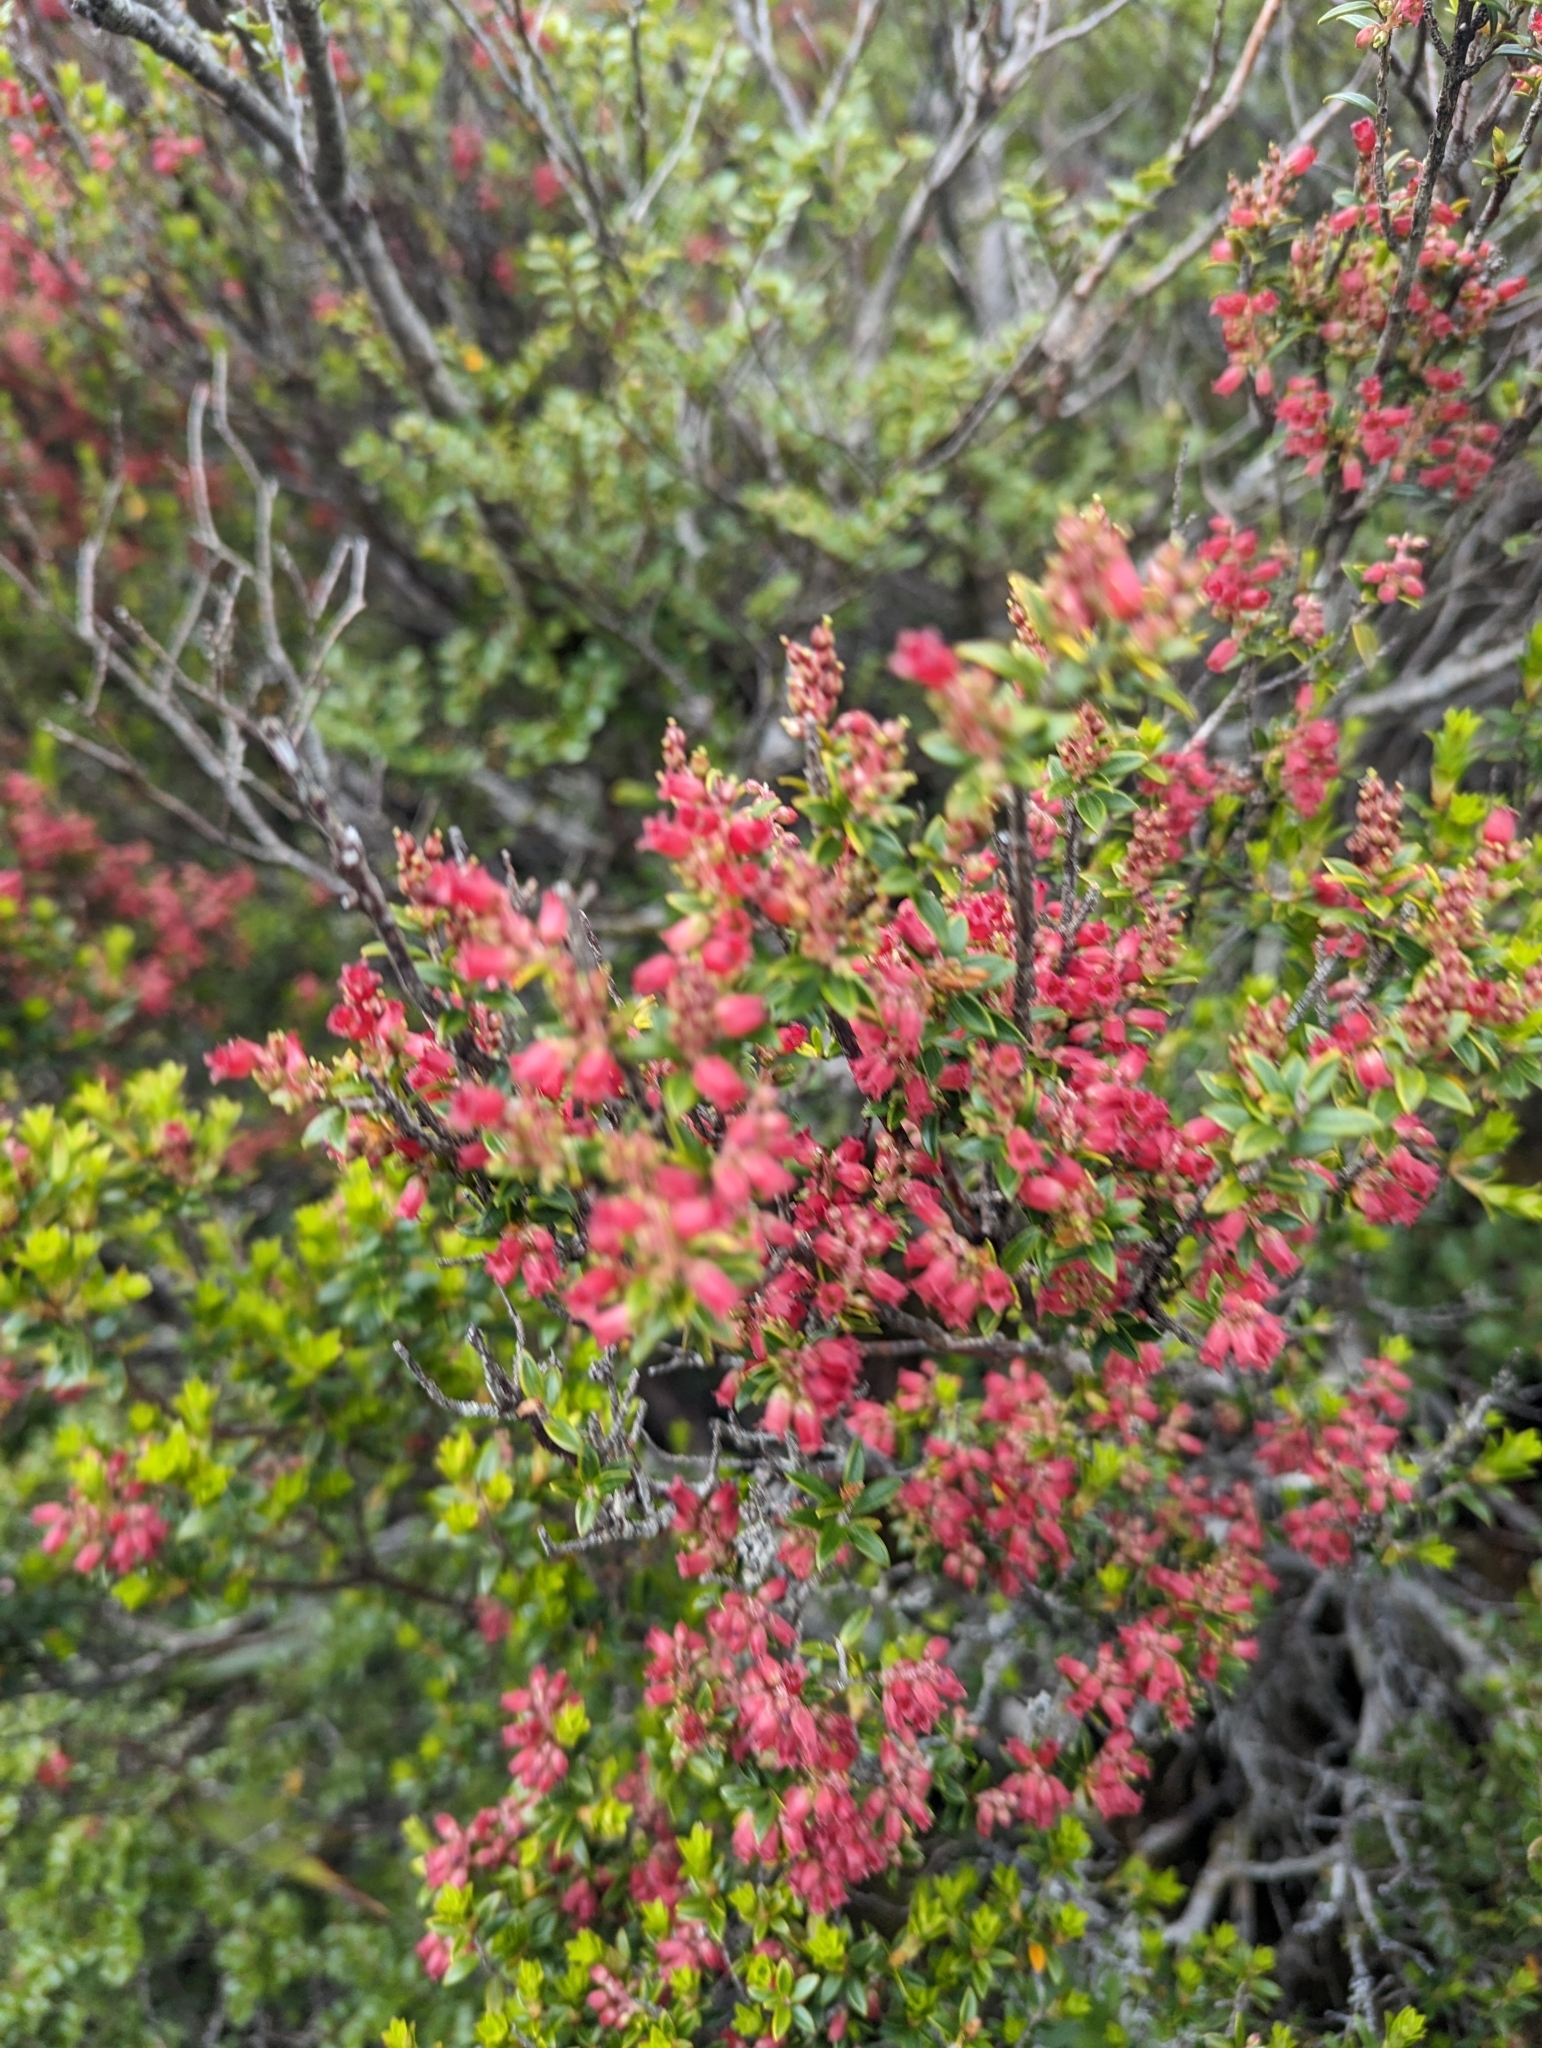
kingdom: Plantae
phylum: Tracheophyta
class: Magnoliopsida
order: Ericales
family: Ericaceae
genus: Archeria
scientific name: Archeria traversii
